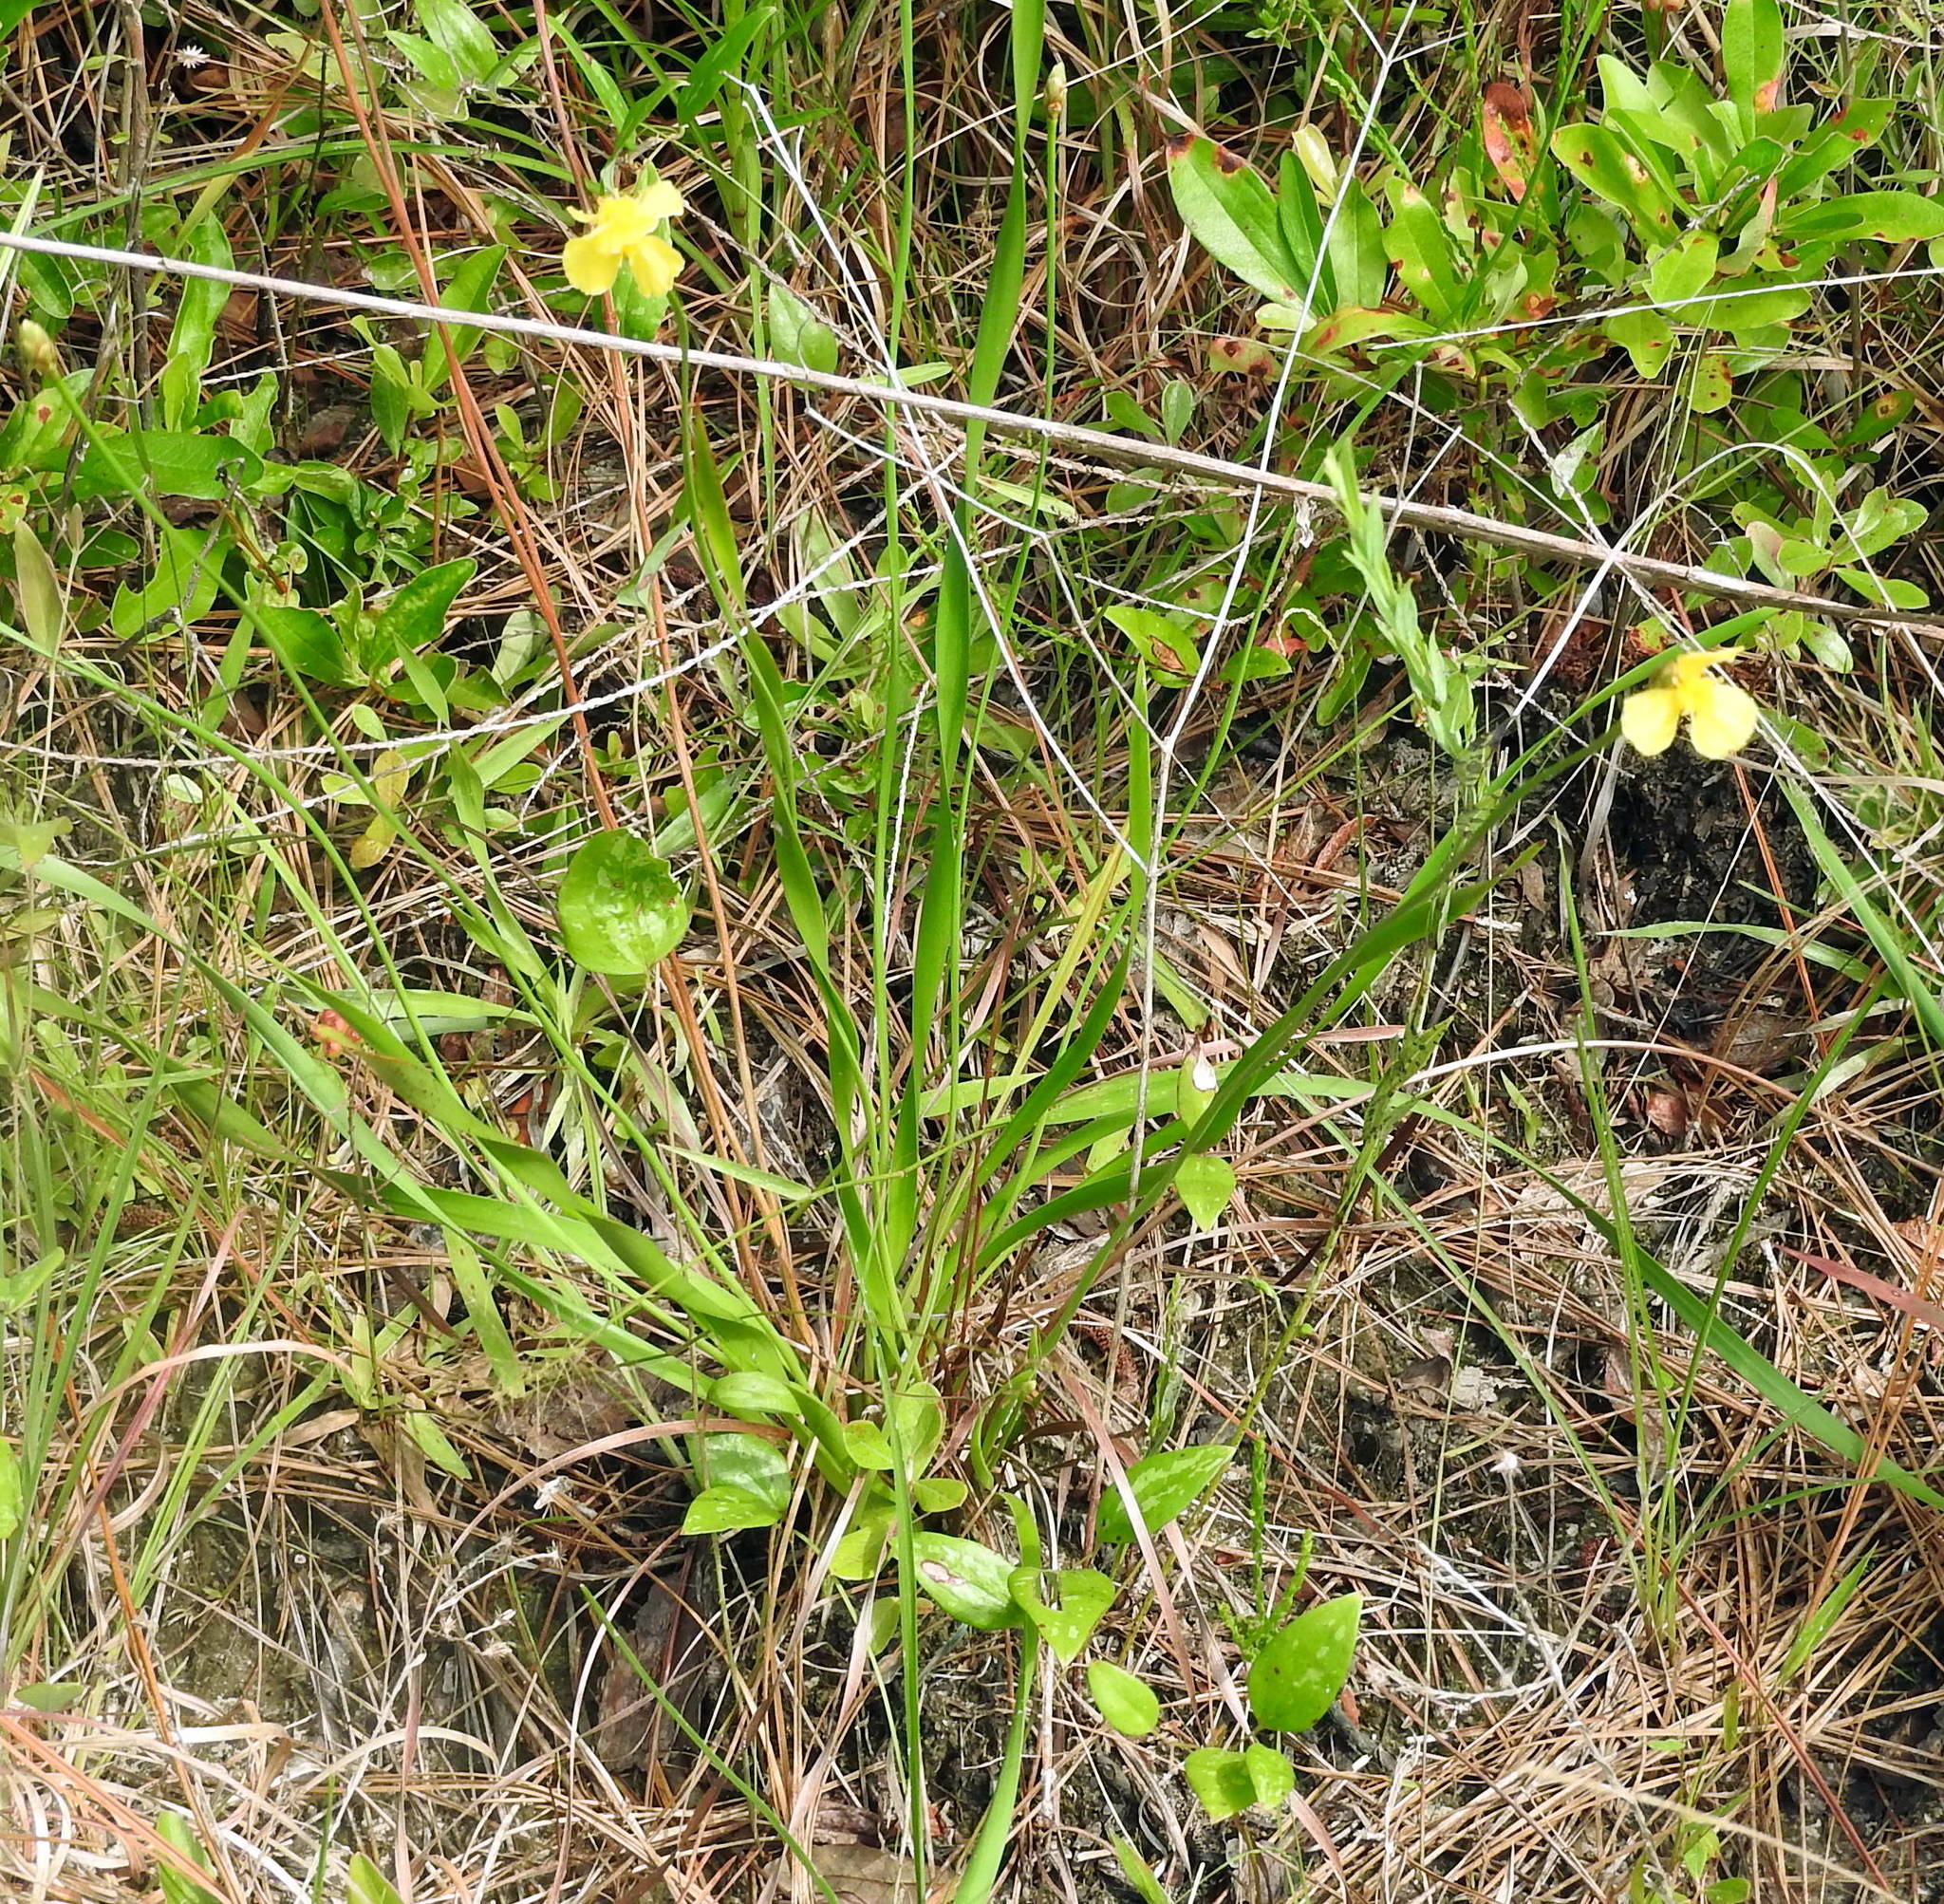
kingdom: Plantae
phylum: Tracheophyta
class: Liliopsida
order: Poales
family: Xyridaceae
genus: Xyris
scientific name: Xyris platylepis
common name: Tall yelloweyed grass
